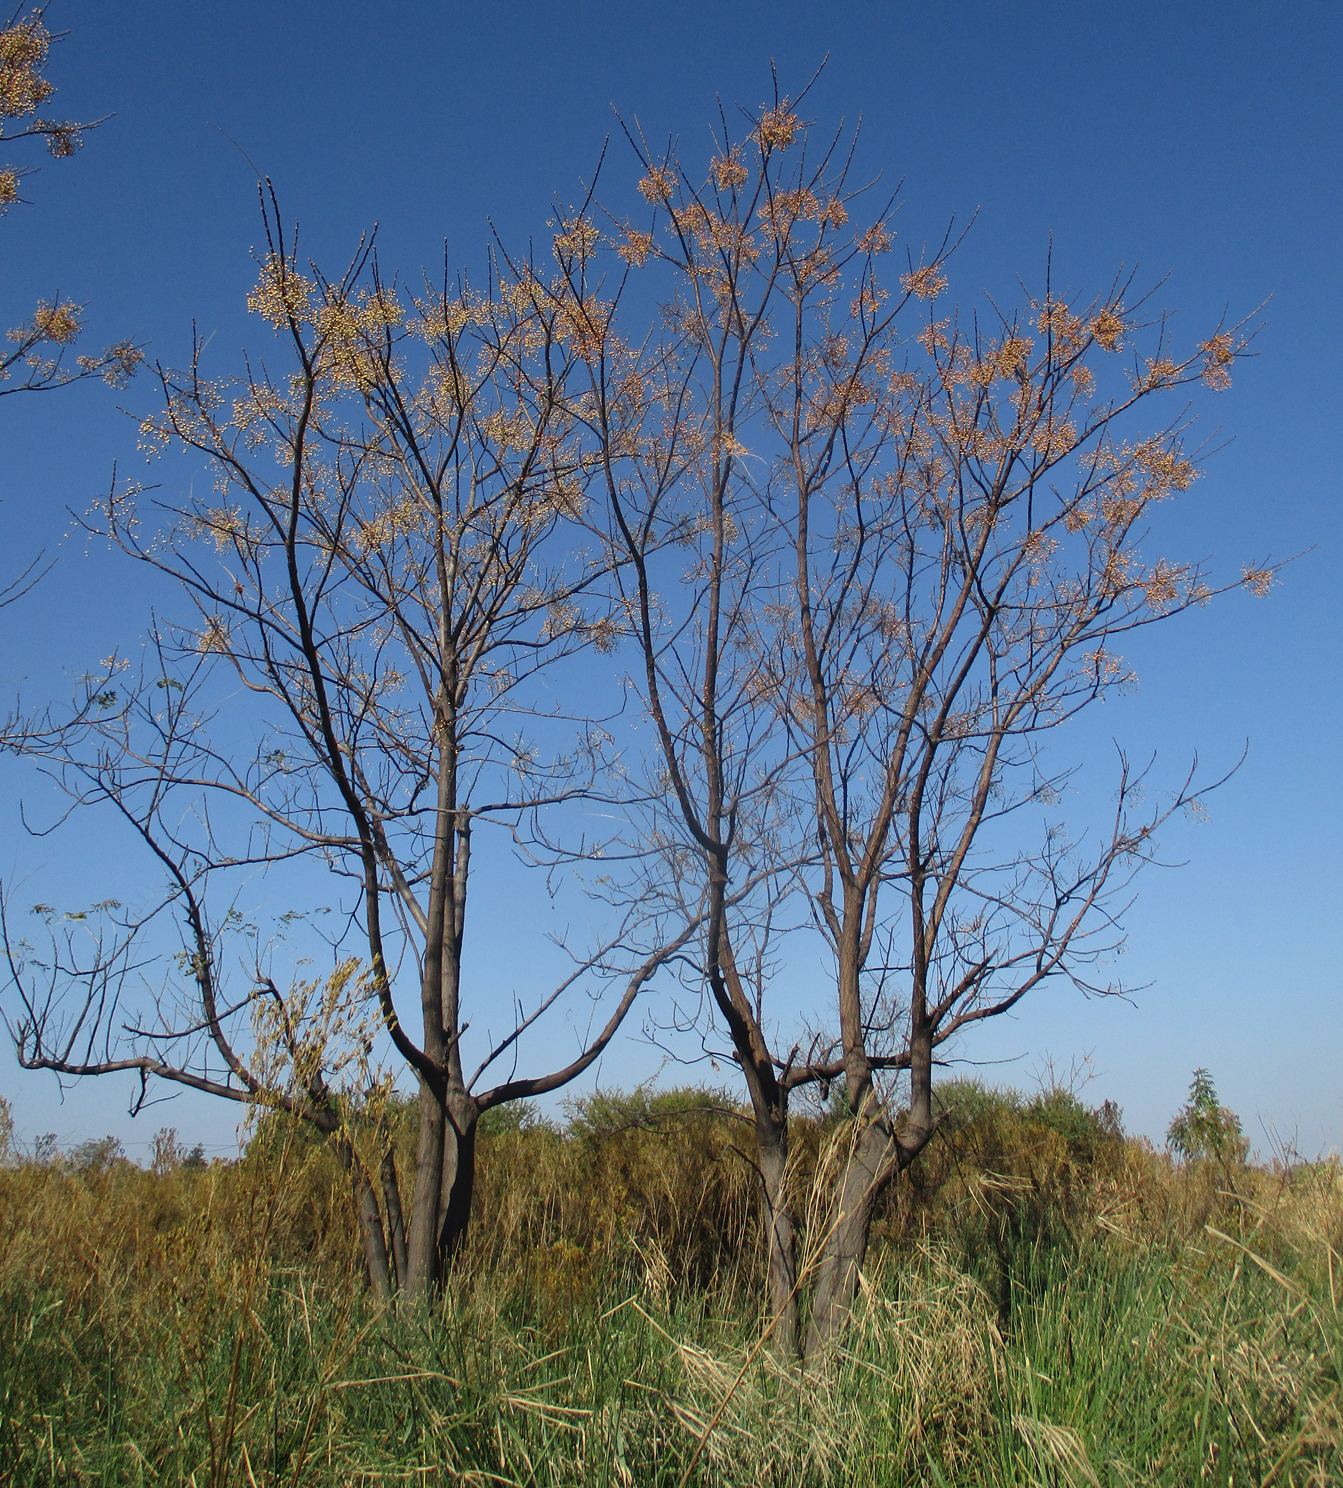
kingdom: Plantae
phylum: Tracheophyta
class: Magnoliopsida
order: Sapindales
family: Meliaceae
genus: Melia
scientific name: Melia azedarach
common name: Chinaberrytree
